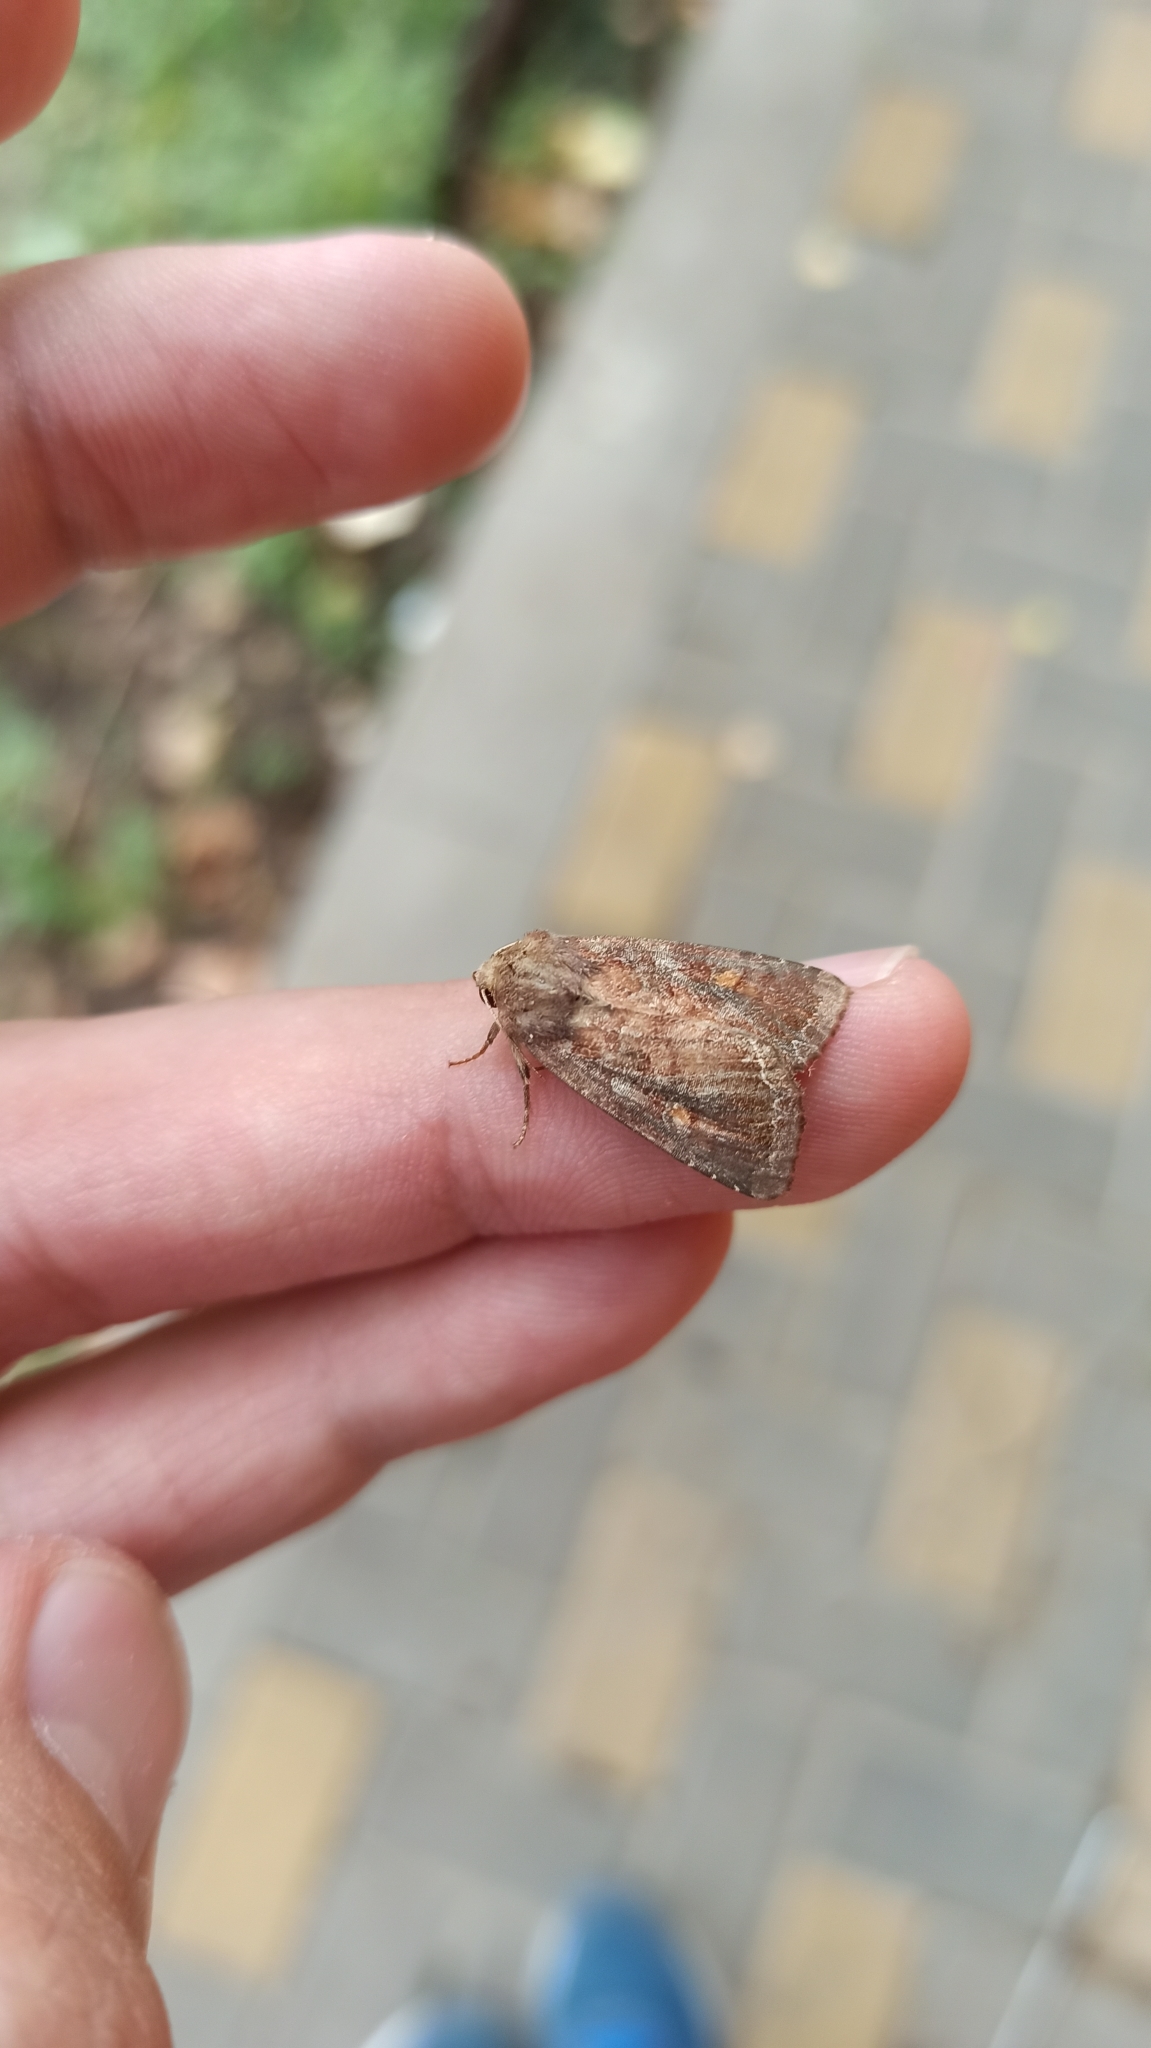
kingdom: Animalia
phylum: Arthropoda
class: Insecta
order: Lepidoptera
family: Noctuidae
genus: Lacanobia
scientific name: Lacanobia oleracea
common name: Bright-line brown-eye
